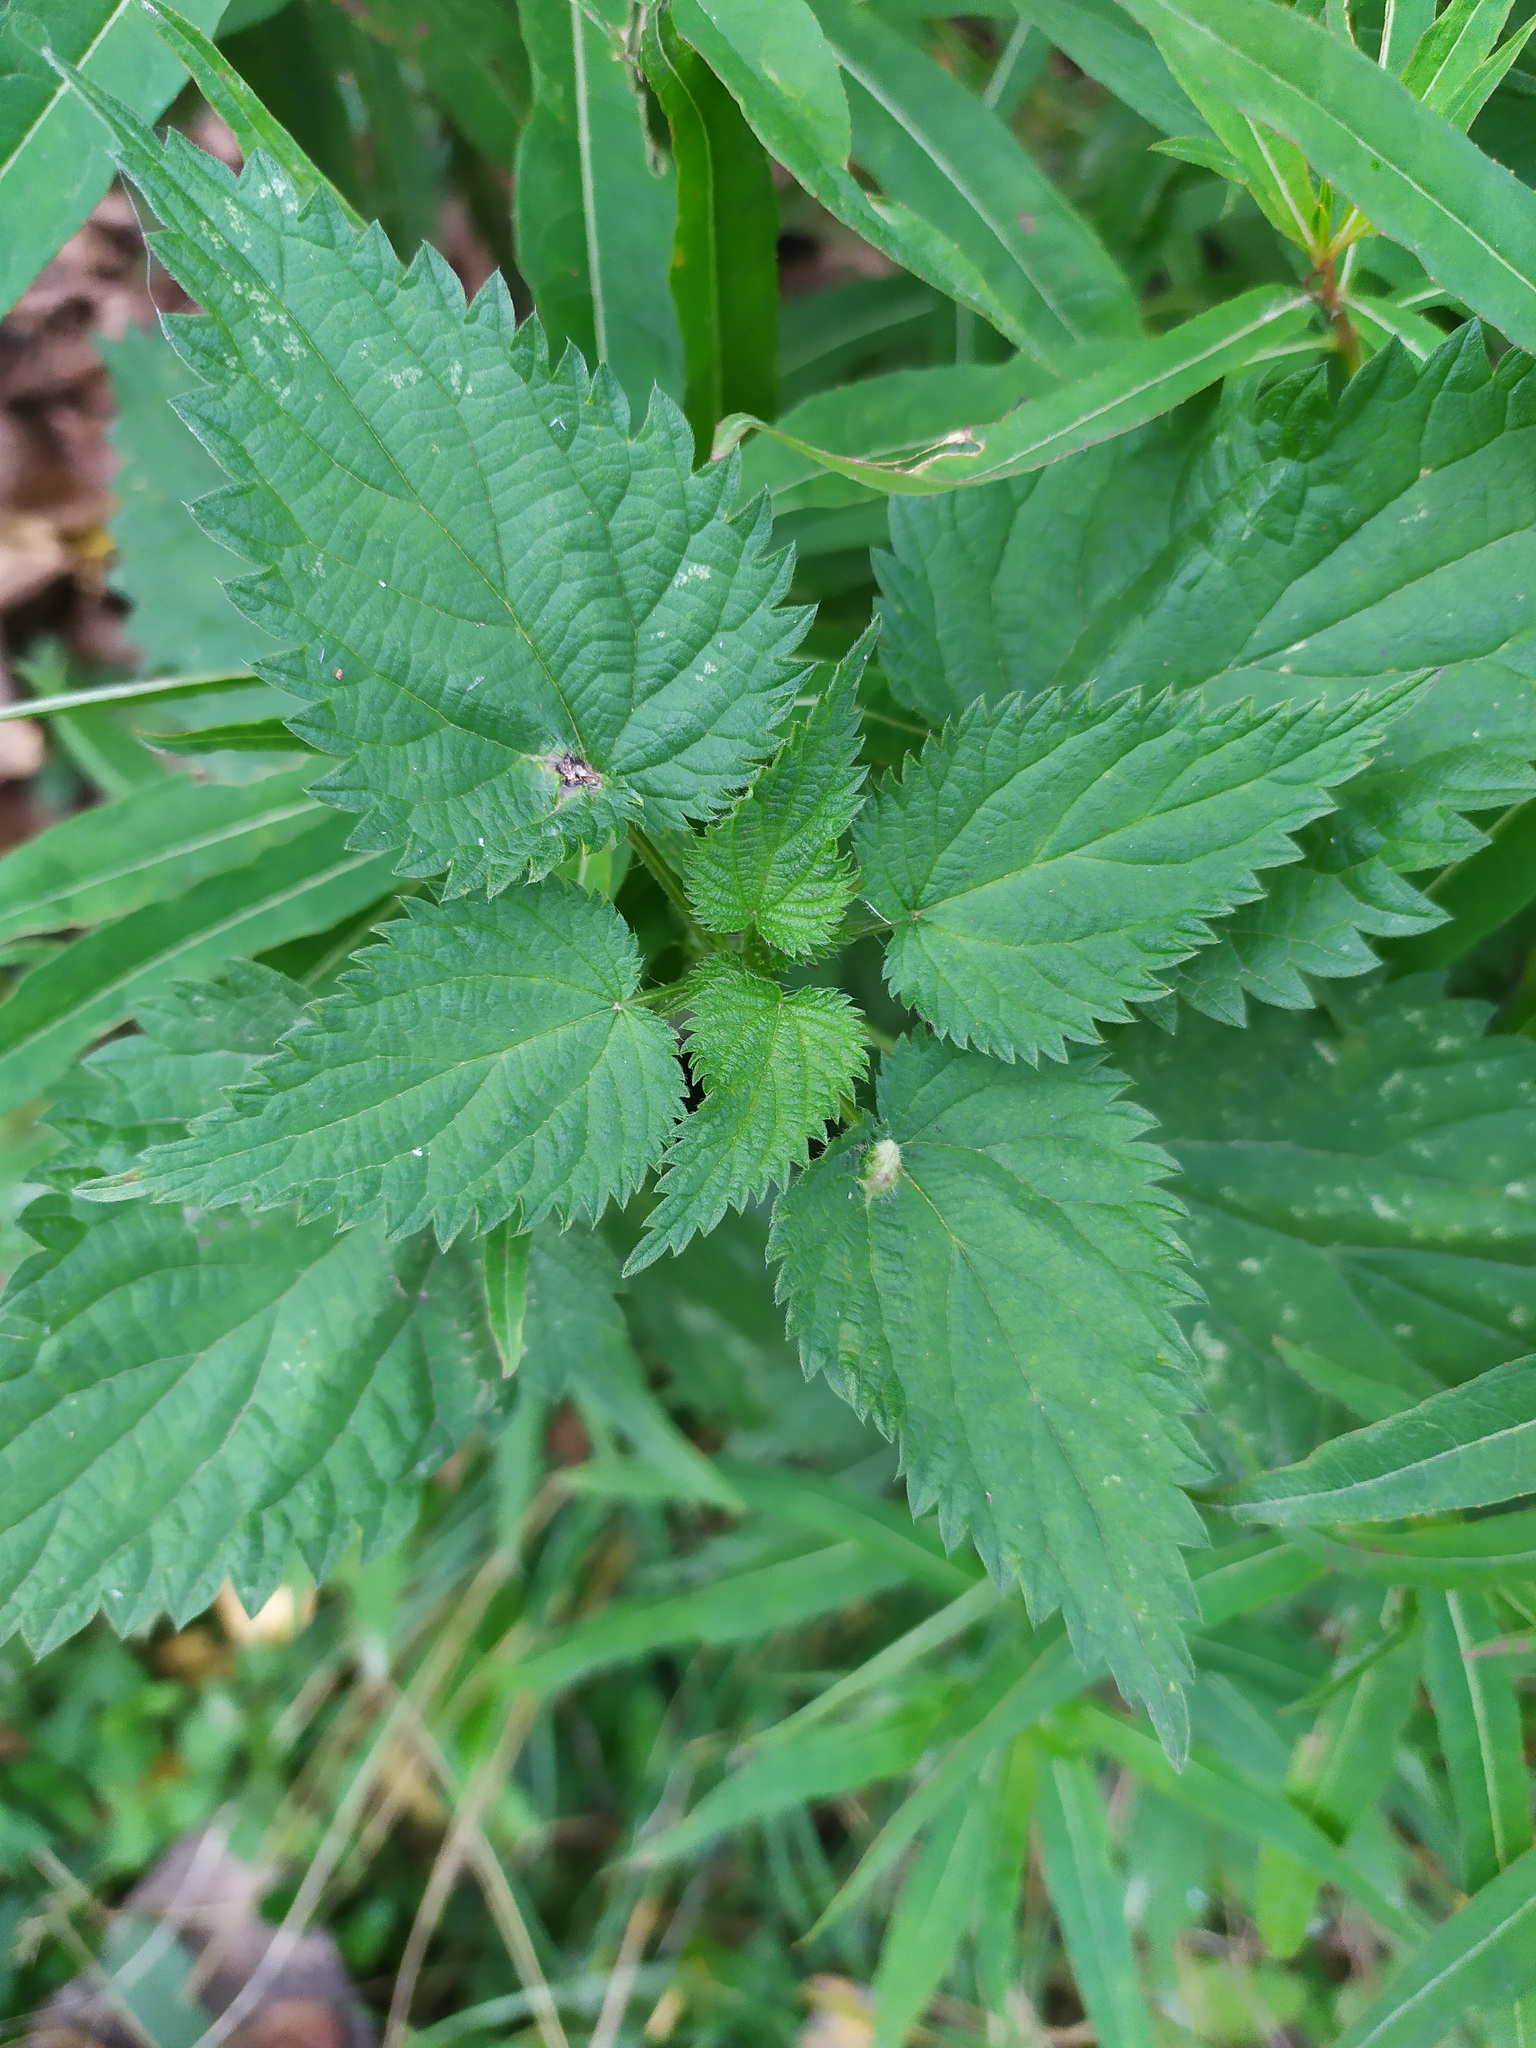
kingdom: Plantae
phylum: Tracheophyta
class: Magnoliopsida
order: Rosales
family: Urticaceae
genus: Urtica
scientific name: Urtica dioica
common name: Common nettle
